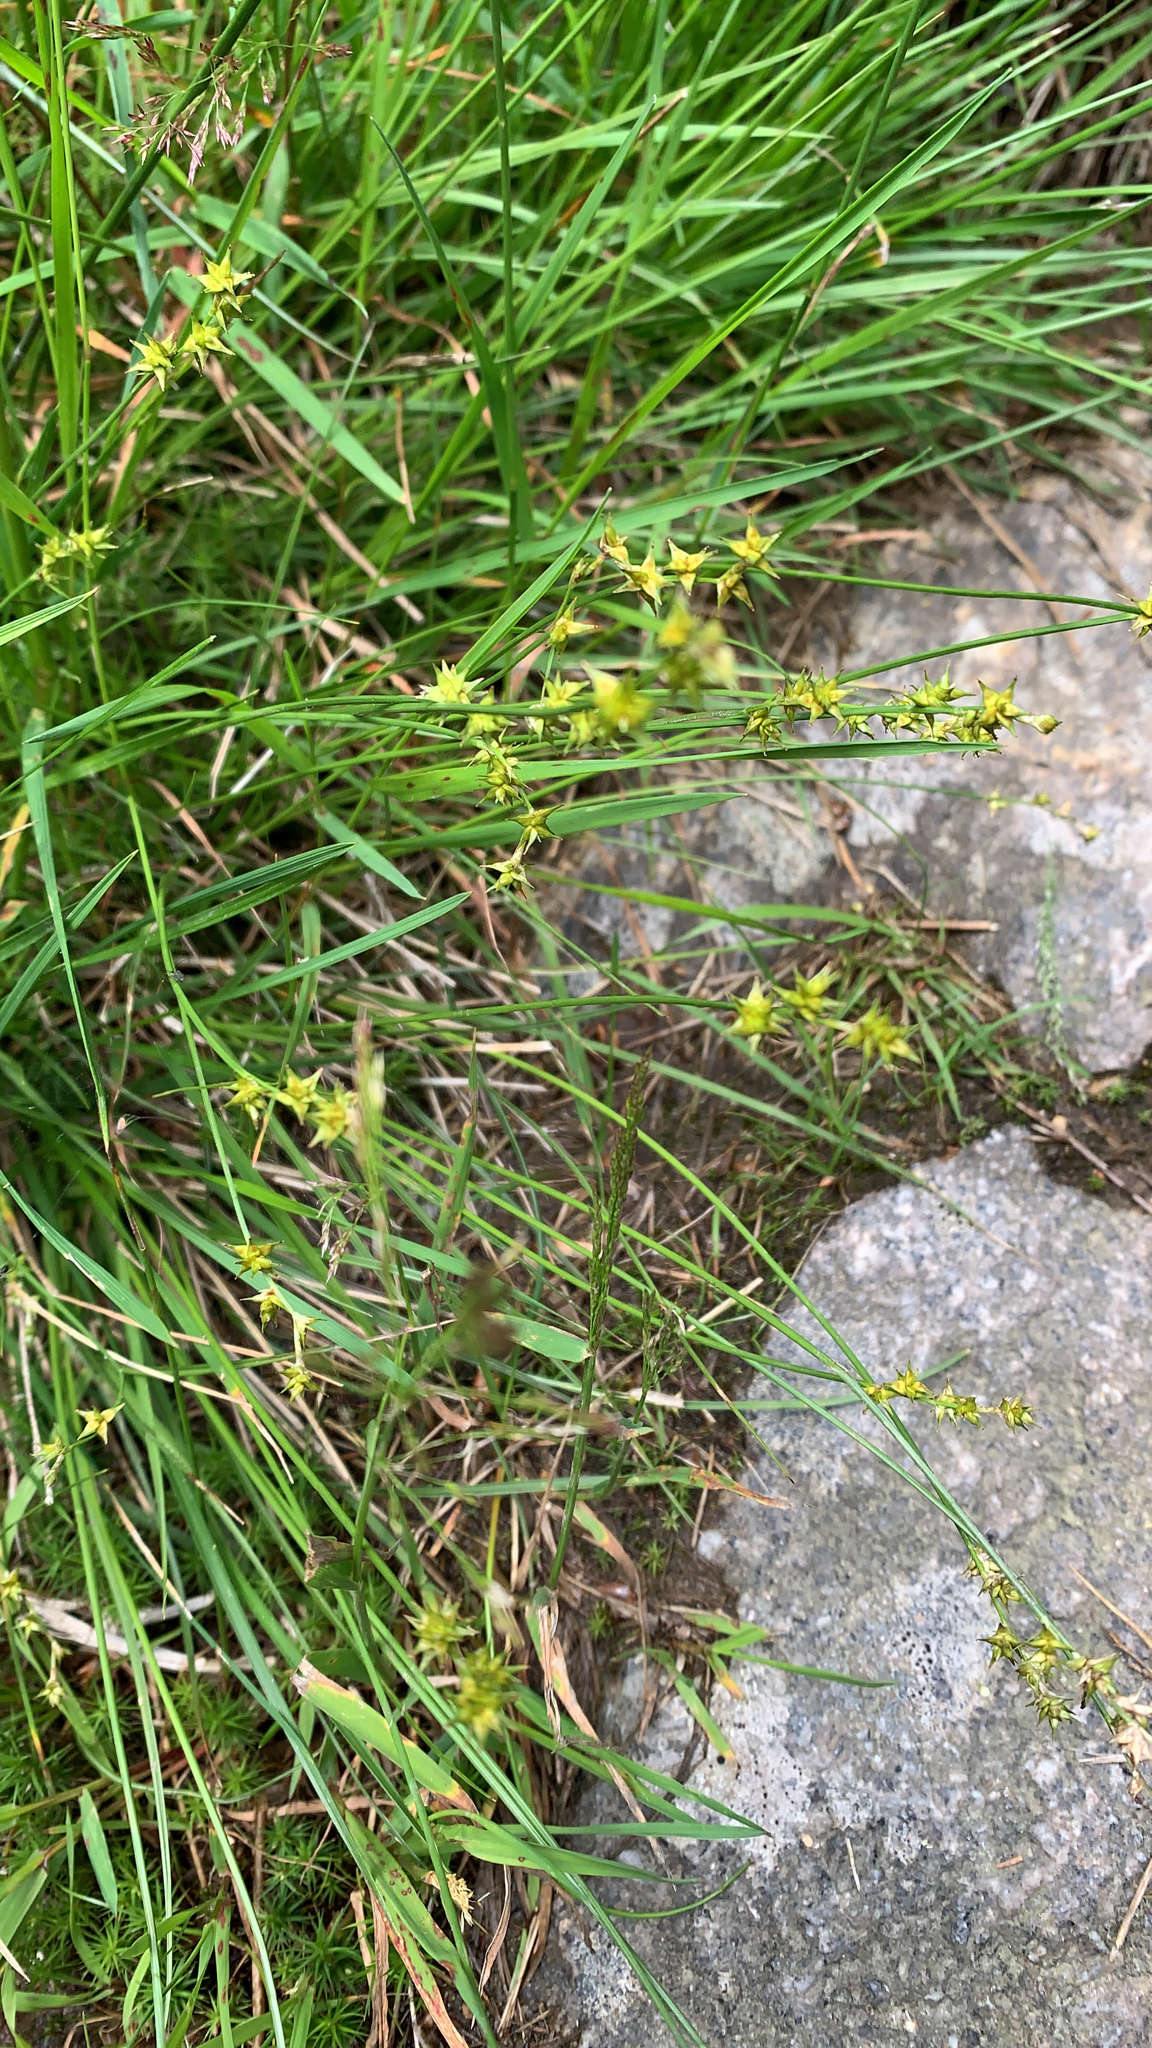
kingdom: Plantae
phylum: Tracheophyta
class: Liliopsida
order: Poales
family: Cyperaceae
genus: Carex
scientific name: Carex echinata
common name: Star sedge
